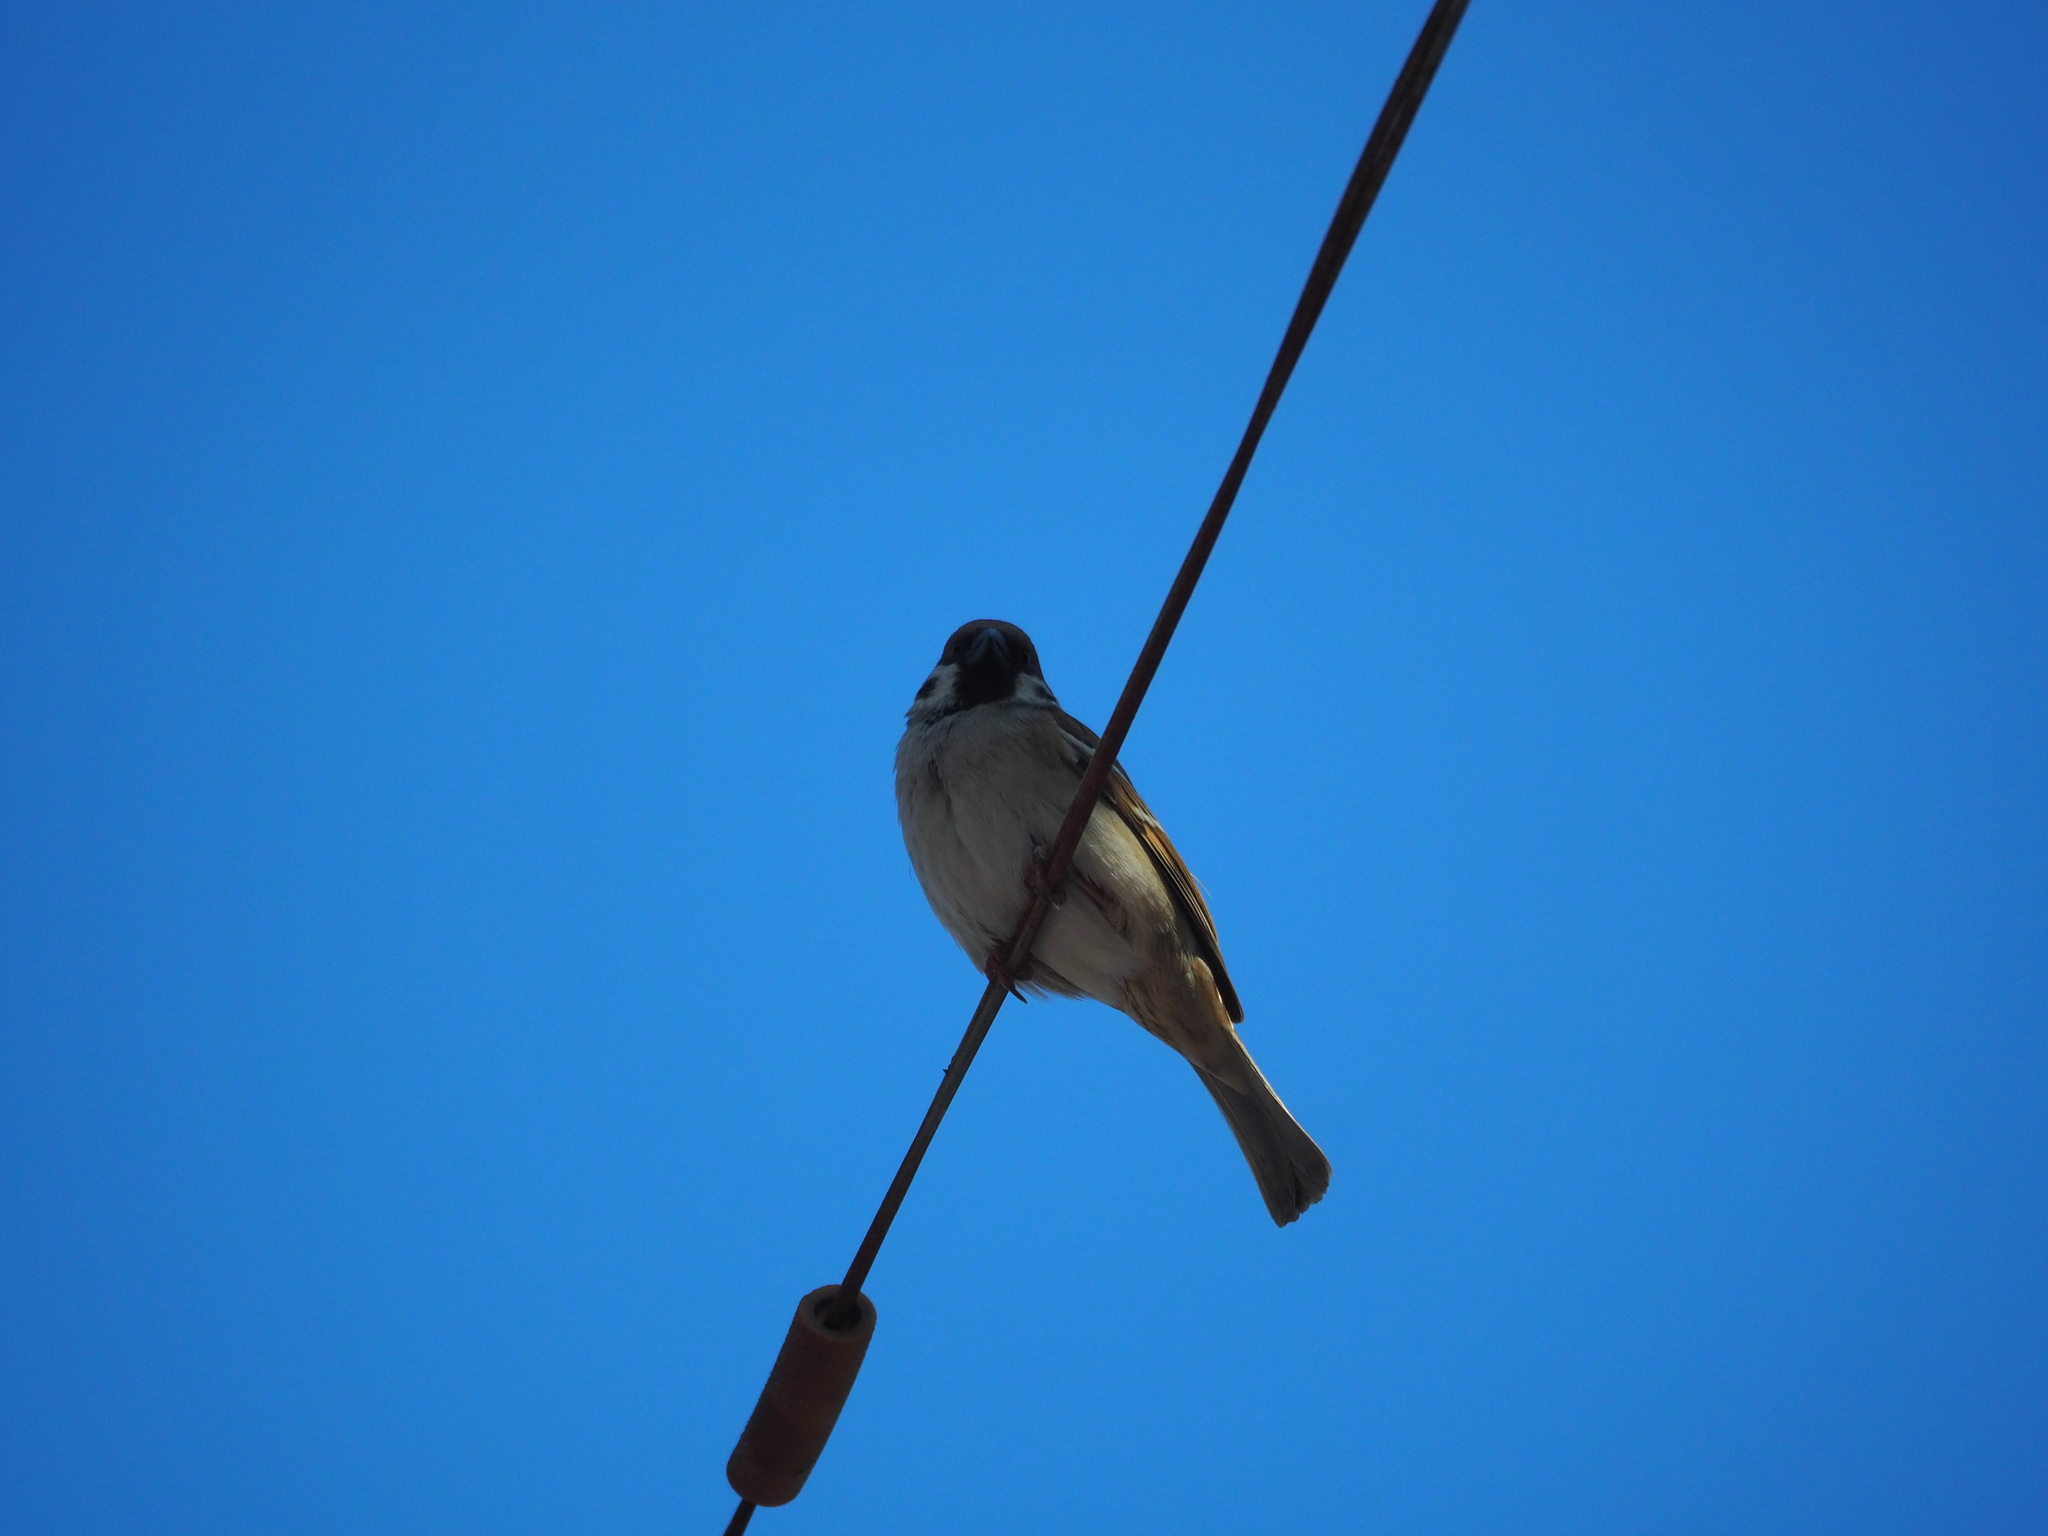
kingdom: Animalia
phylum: Chordata
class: Aves
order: Passeriformes
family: Passeridae
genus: Passer
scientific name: Passer montanus
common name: Eurasian tree sparrow
